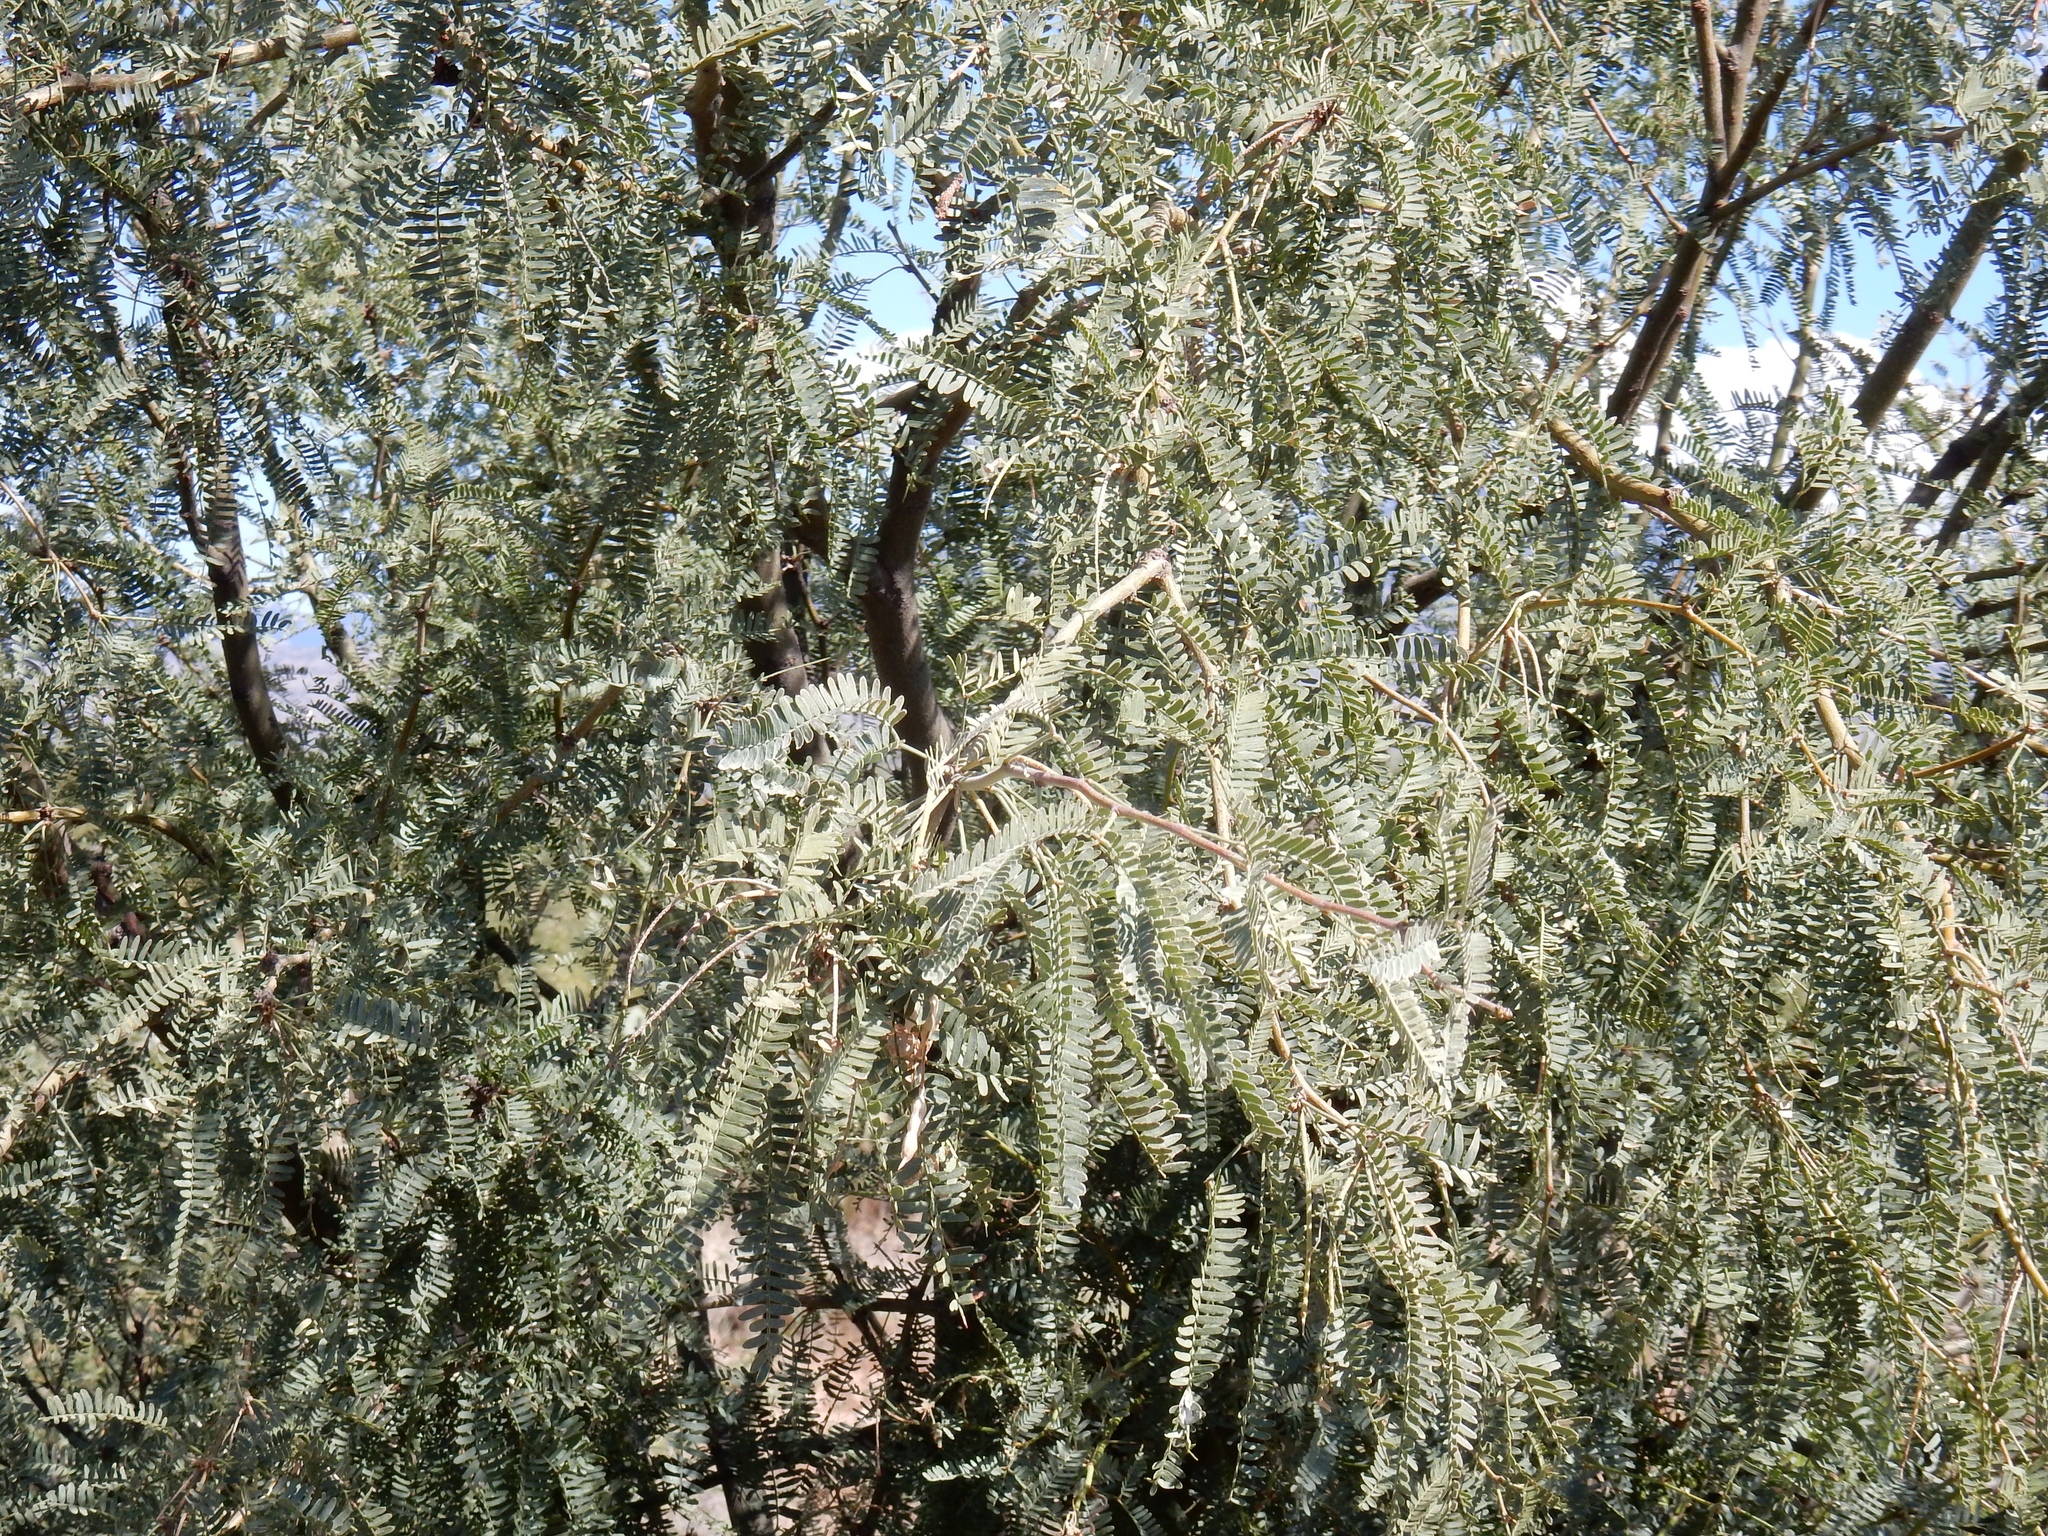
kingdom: Plantae
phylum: Tracheophyta
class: Magnoliopsida
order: Fabales
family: Fabaceae
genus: Prosopis
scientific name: Prosopis velutina
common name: Velvet mesquite
